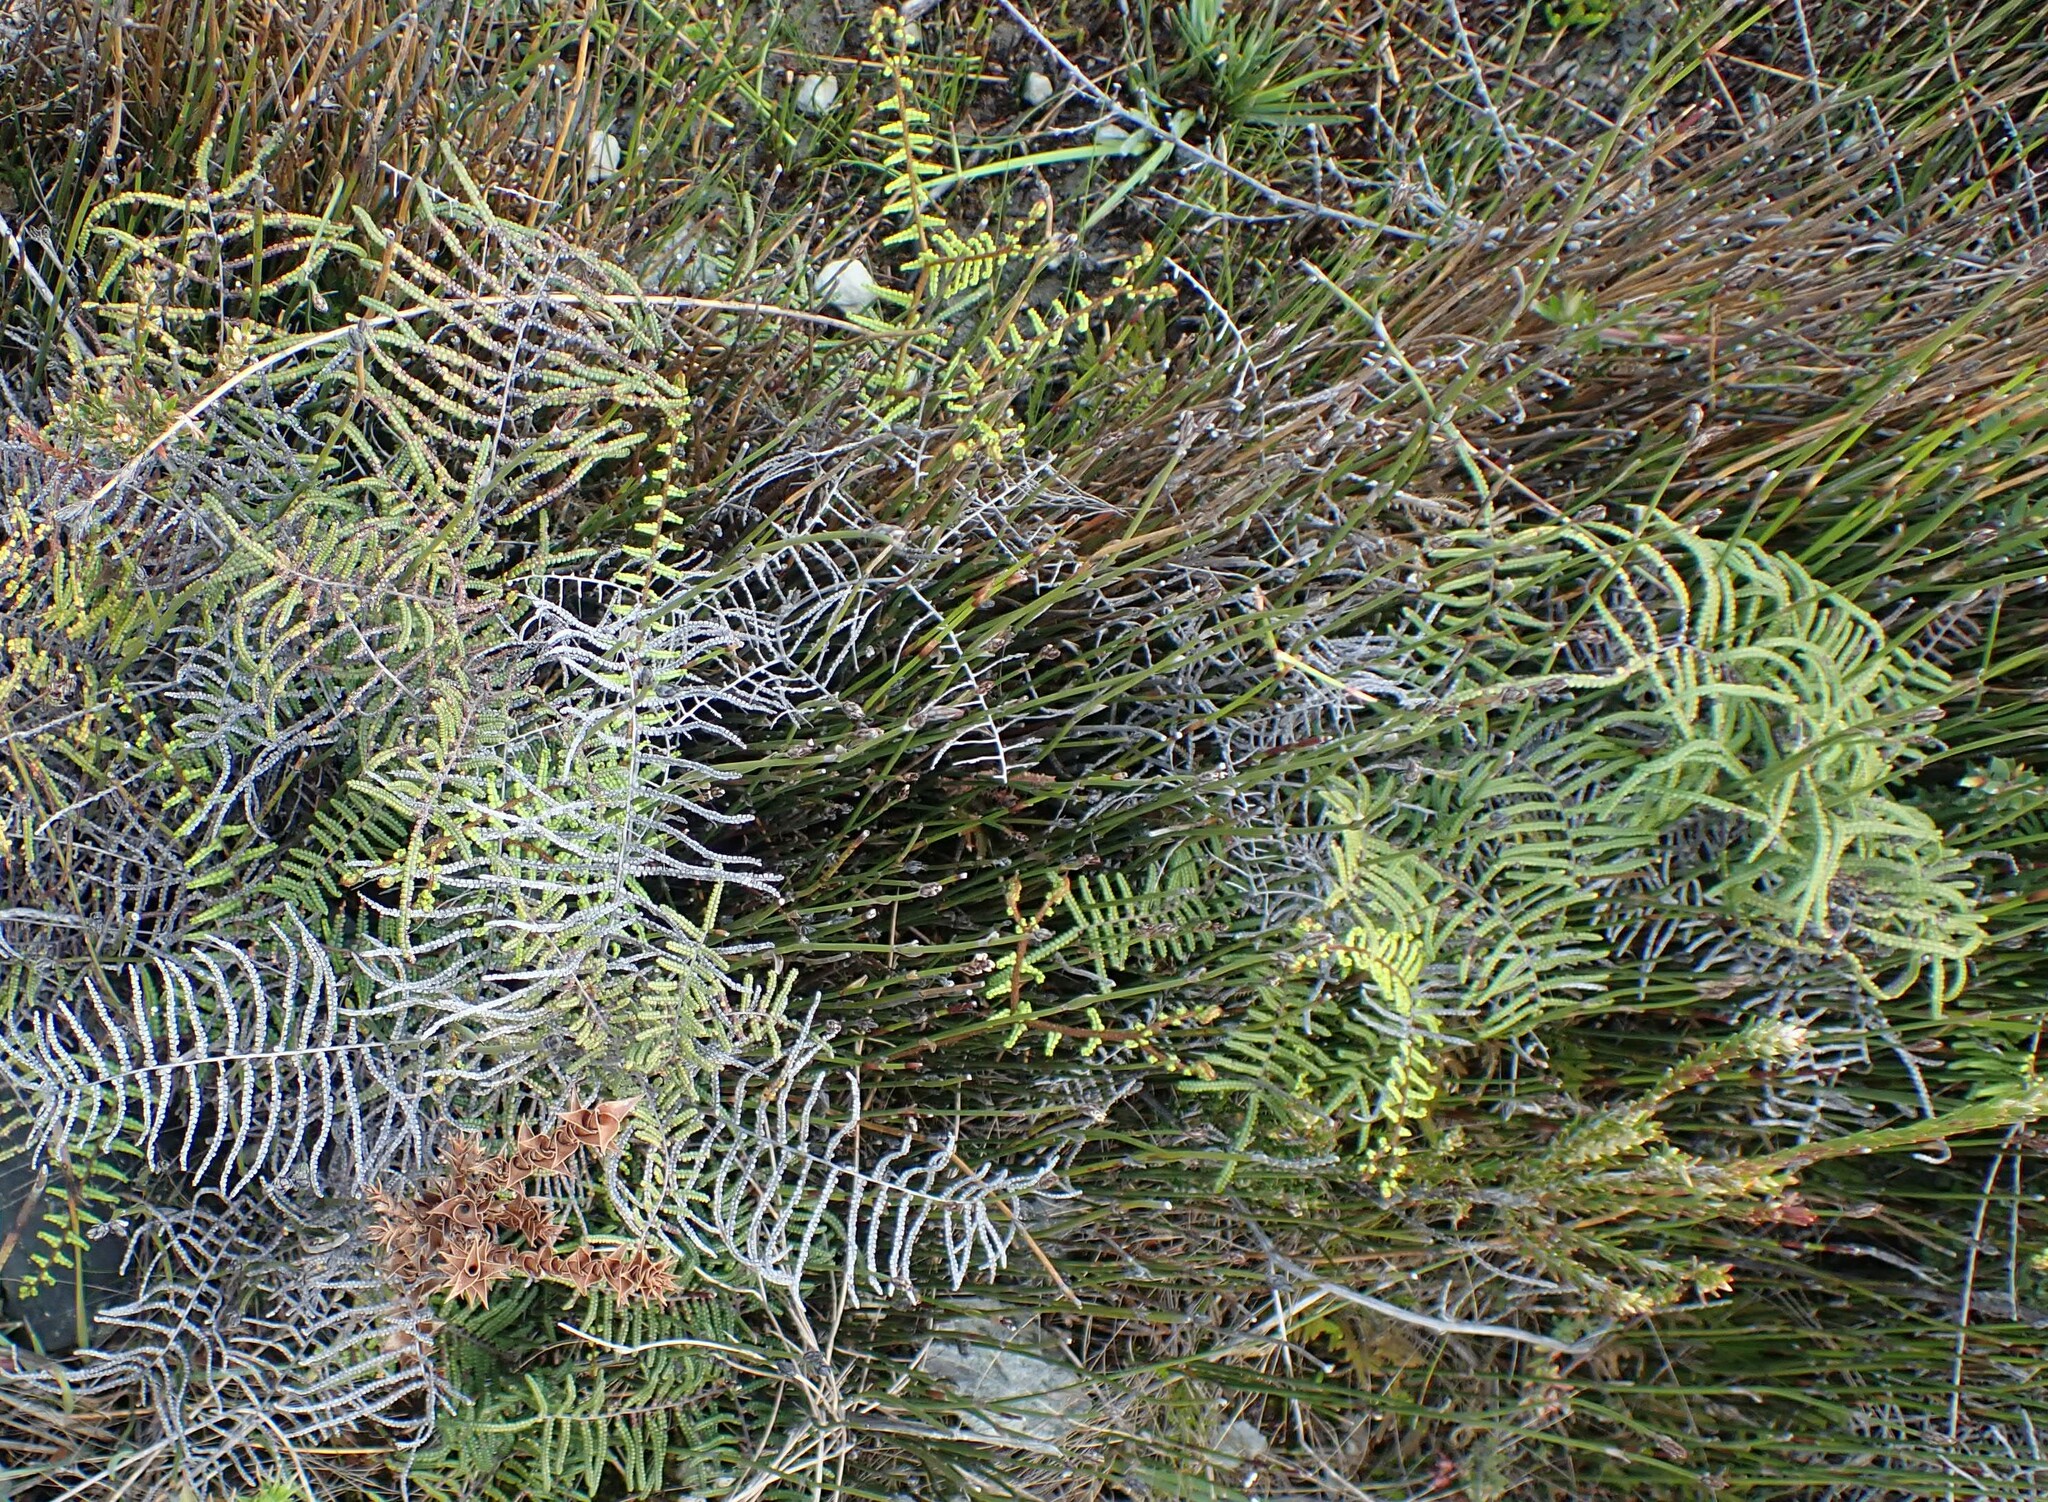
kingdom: Plantae
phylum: Tracheophyta
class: Polypodiopsida
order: Gleicheniales
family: Gleicheniaceae
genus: Gleichenia
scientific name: Gleichenia microphylla
